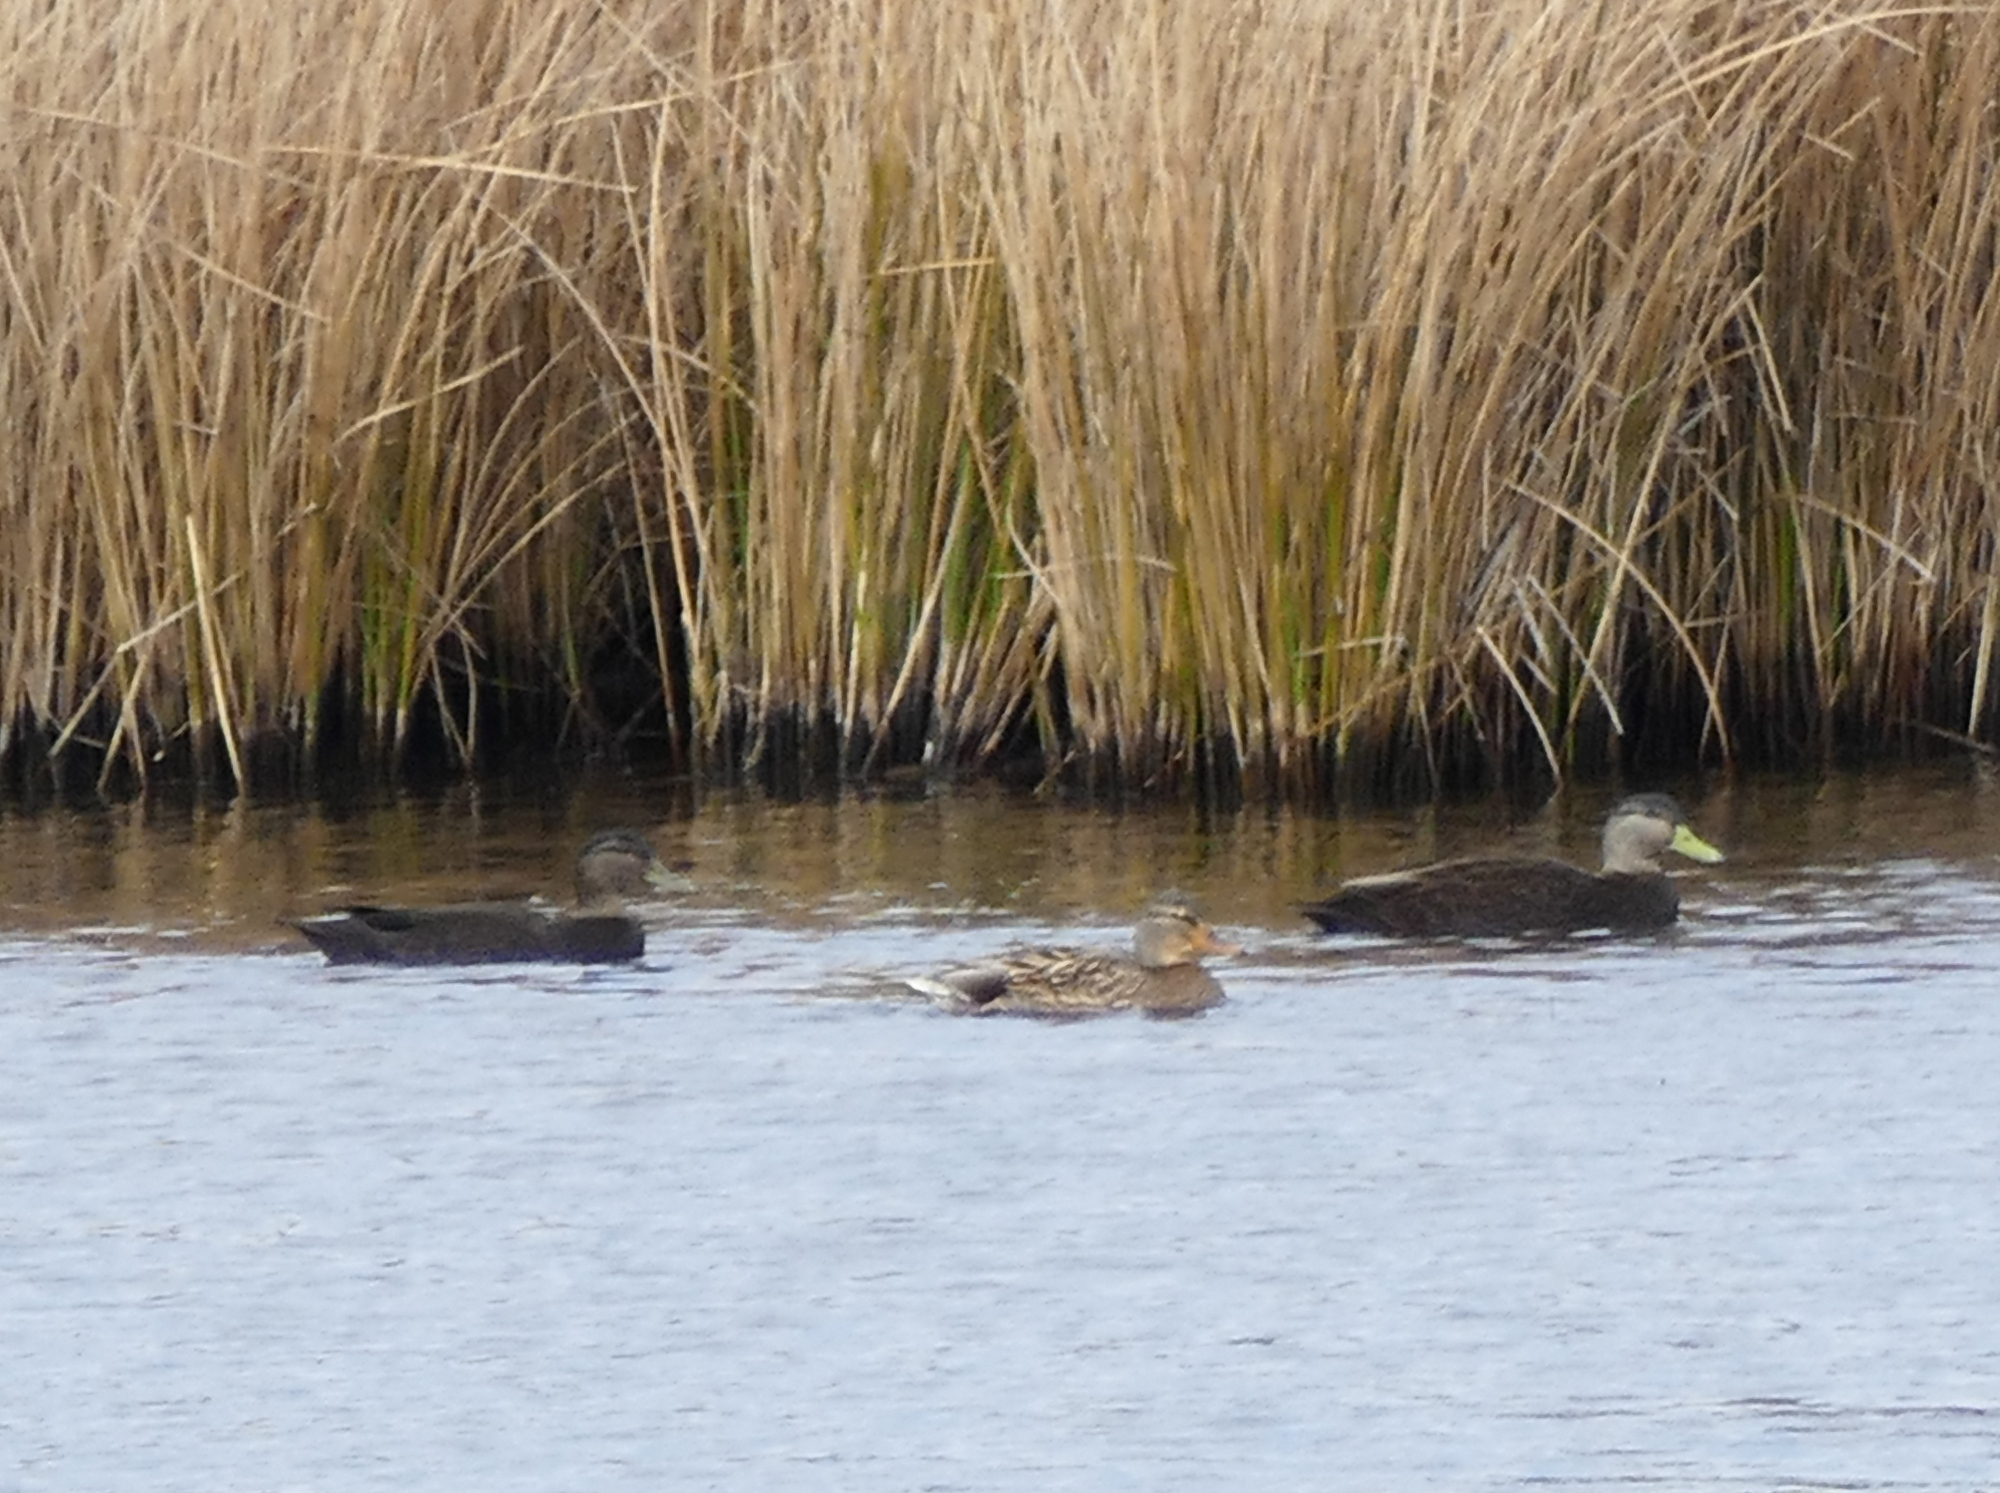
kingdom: Animalia
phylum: Chordata
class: Aves
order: Anseriformes
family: Anatidae
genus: Anas
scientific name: Anas rubripes
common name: American black duck
